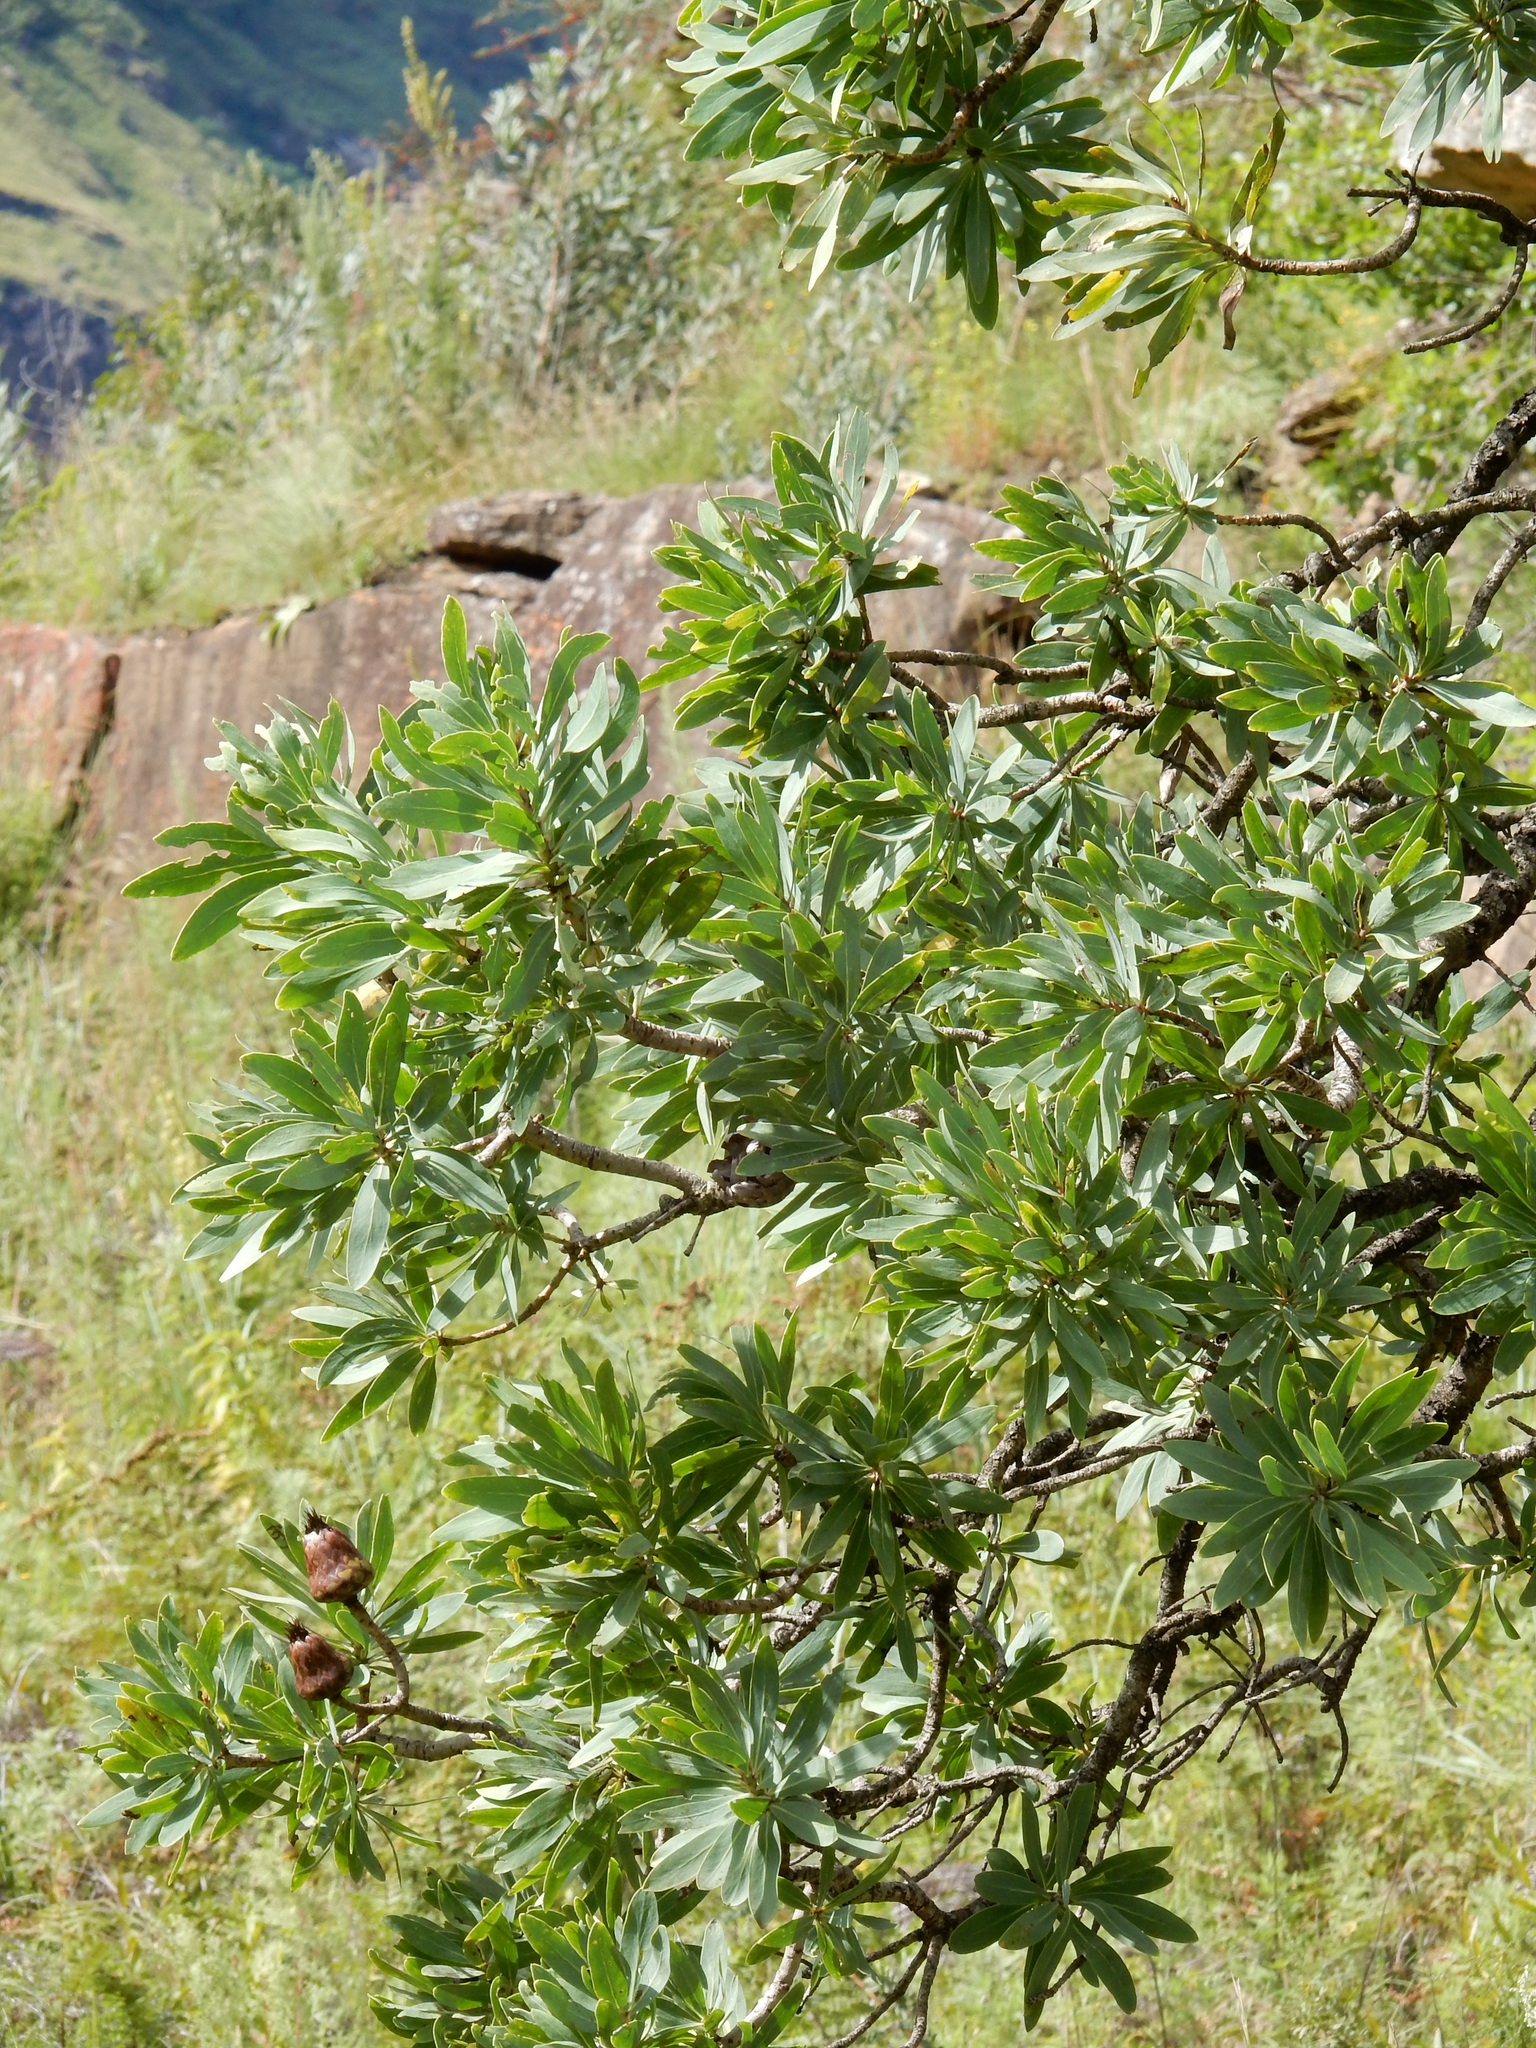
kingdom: Plantae
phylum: Tracheophyta
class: Magnoliopsida
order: Proteales
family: Proteaceae
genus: Protea
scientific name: Protea caffra
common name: Common sugarbush
